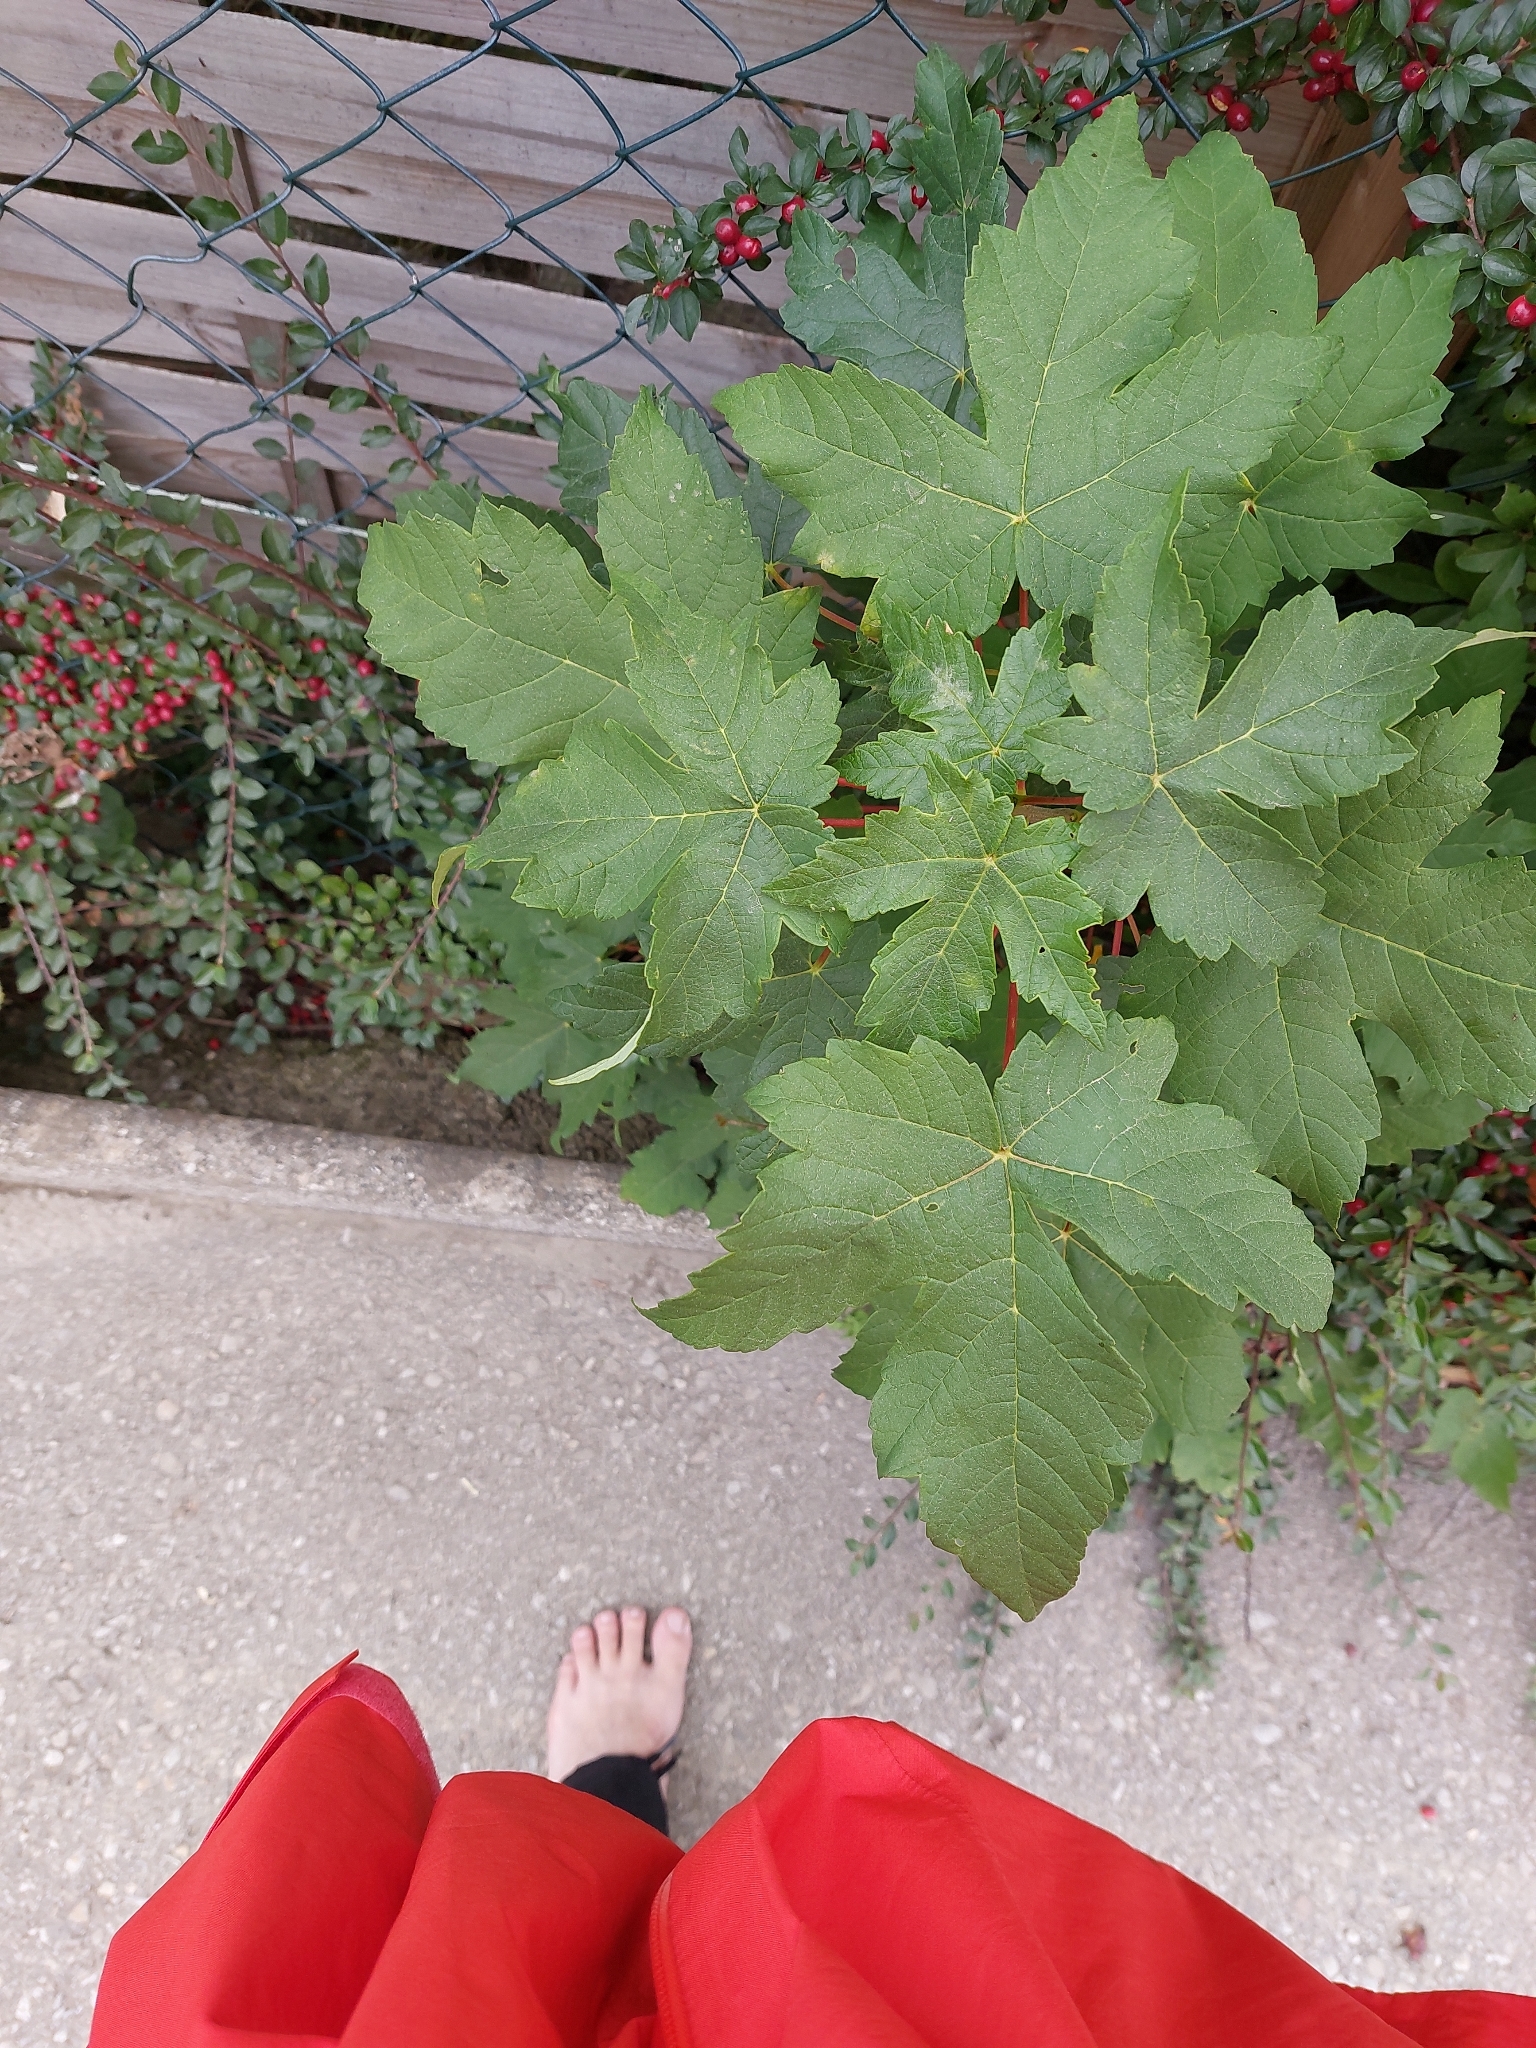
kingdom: Plantae
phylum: Tracheophyta
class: Magnoliopsida
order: Sapindales
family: Sapindaceae
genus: Acer
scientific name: Acer pseudoplatanus
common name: Sycamore
